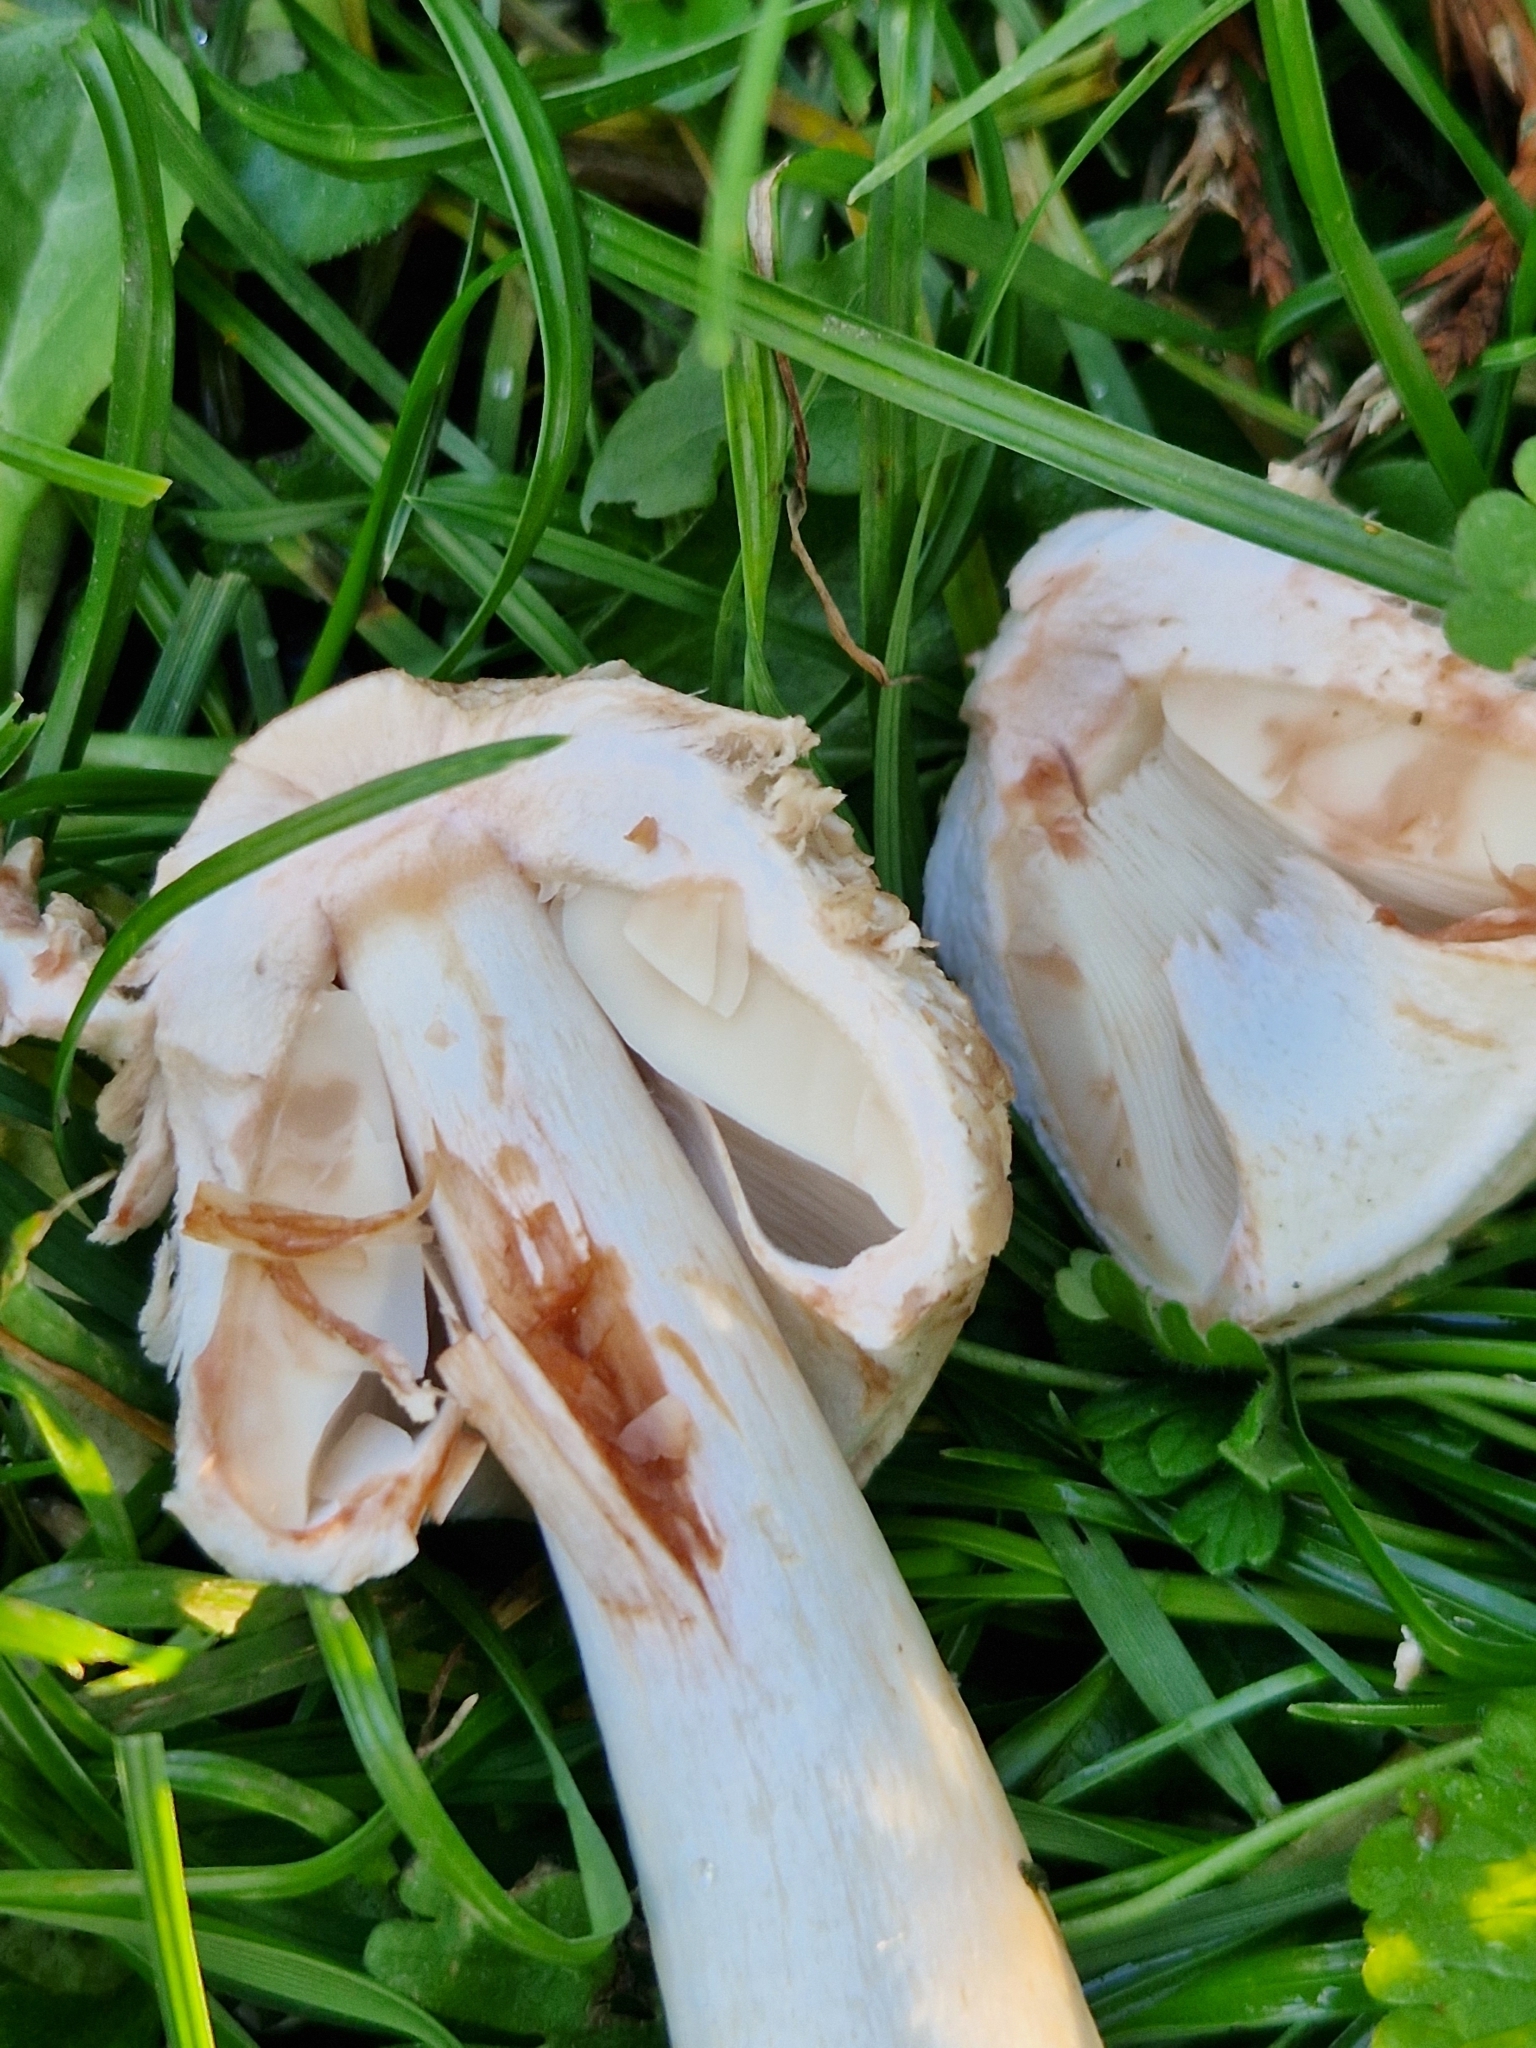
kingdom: Fungi
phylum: Basidiomycota
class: Agaricomycetes
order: Agaricales
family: Agaricaceae
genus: Chlorophyllum
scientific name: Chlorophyllum rhacodes
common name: Shaggy parasol
